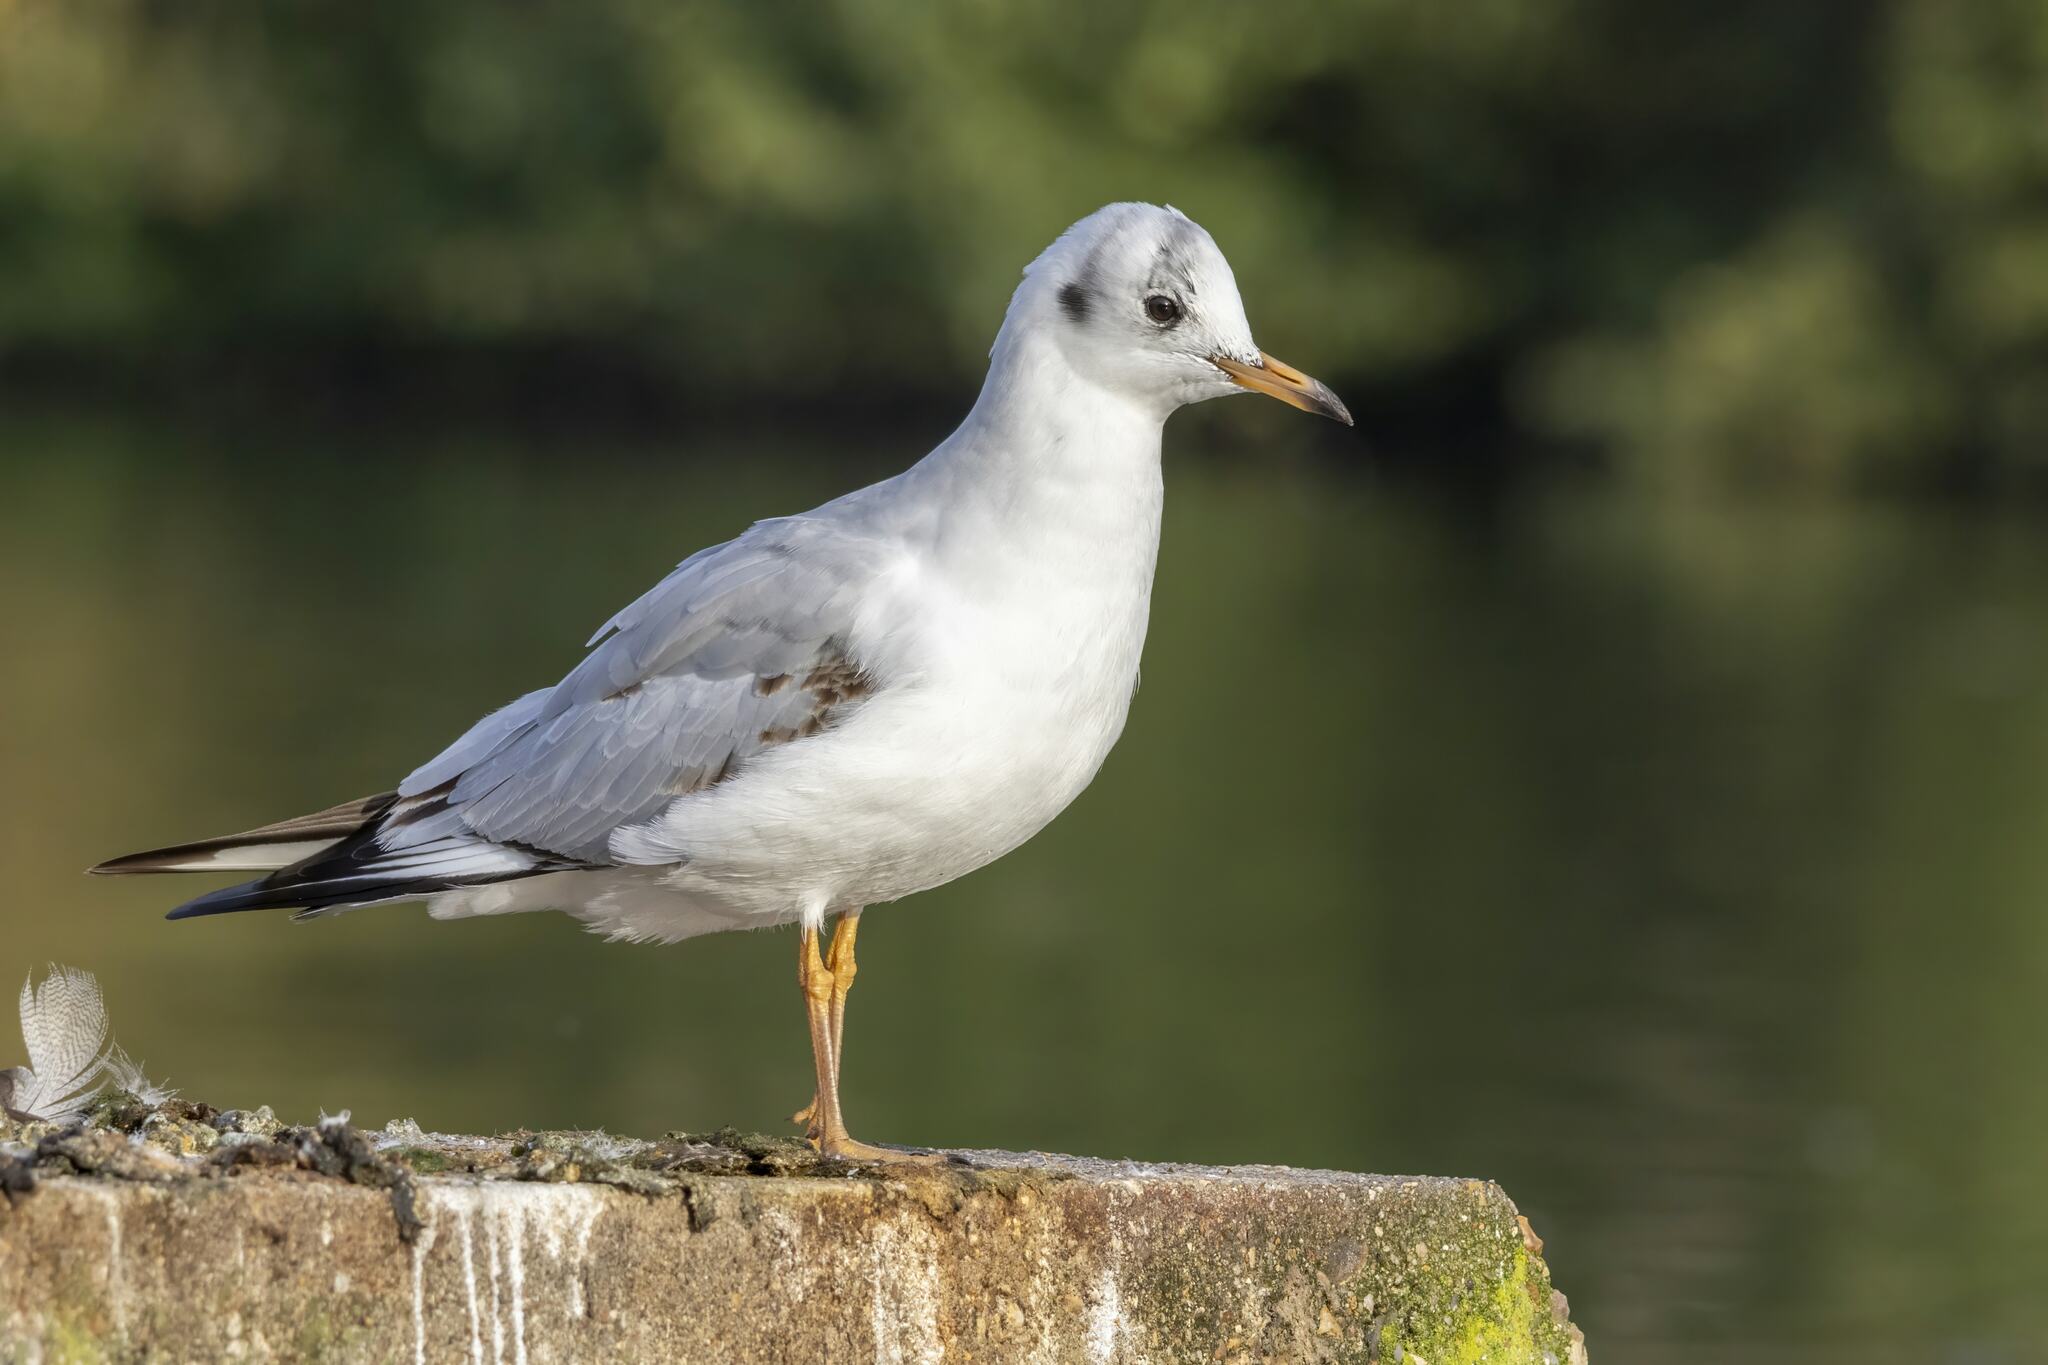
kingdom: Animalia
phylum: Chordata
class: Aves
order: Charadriiformes
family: Laridae
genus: Chroicocephalus
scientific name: Chroicocephalus ridibundus
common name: Black-headed gull
